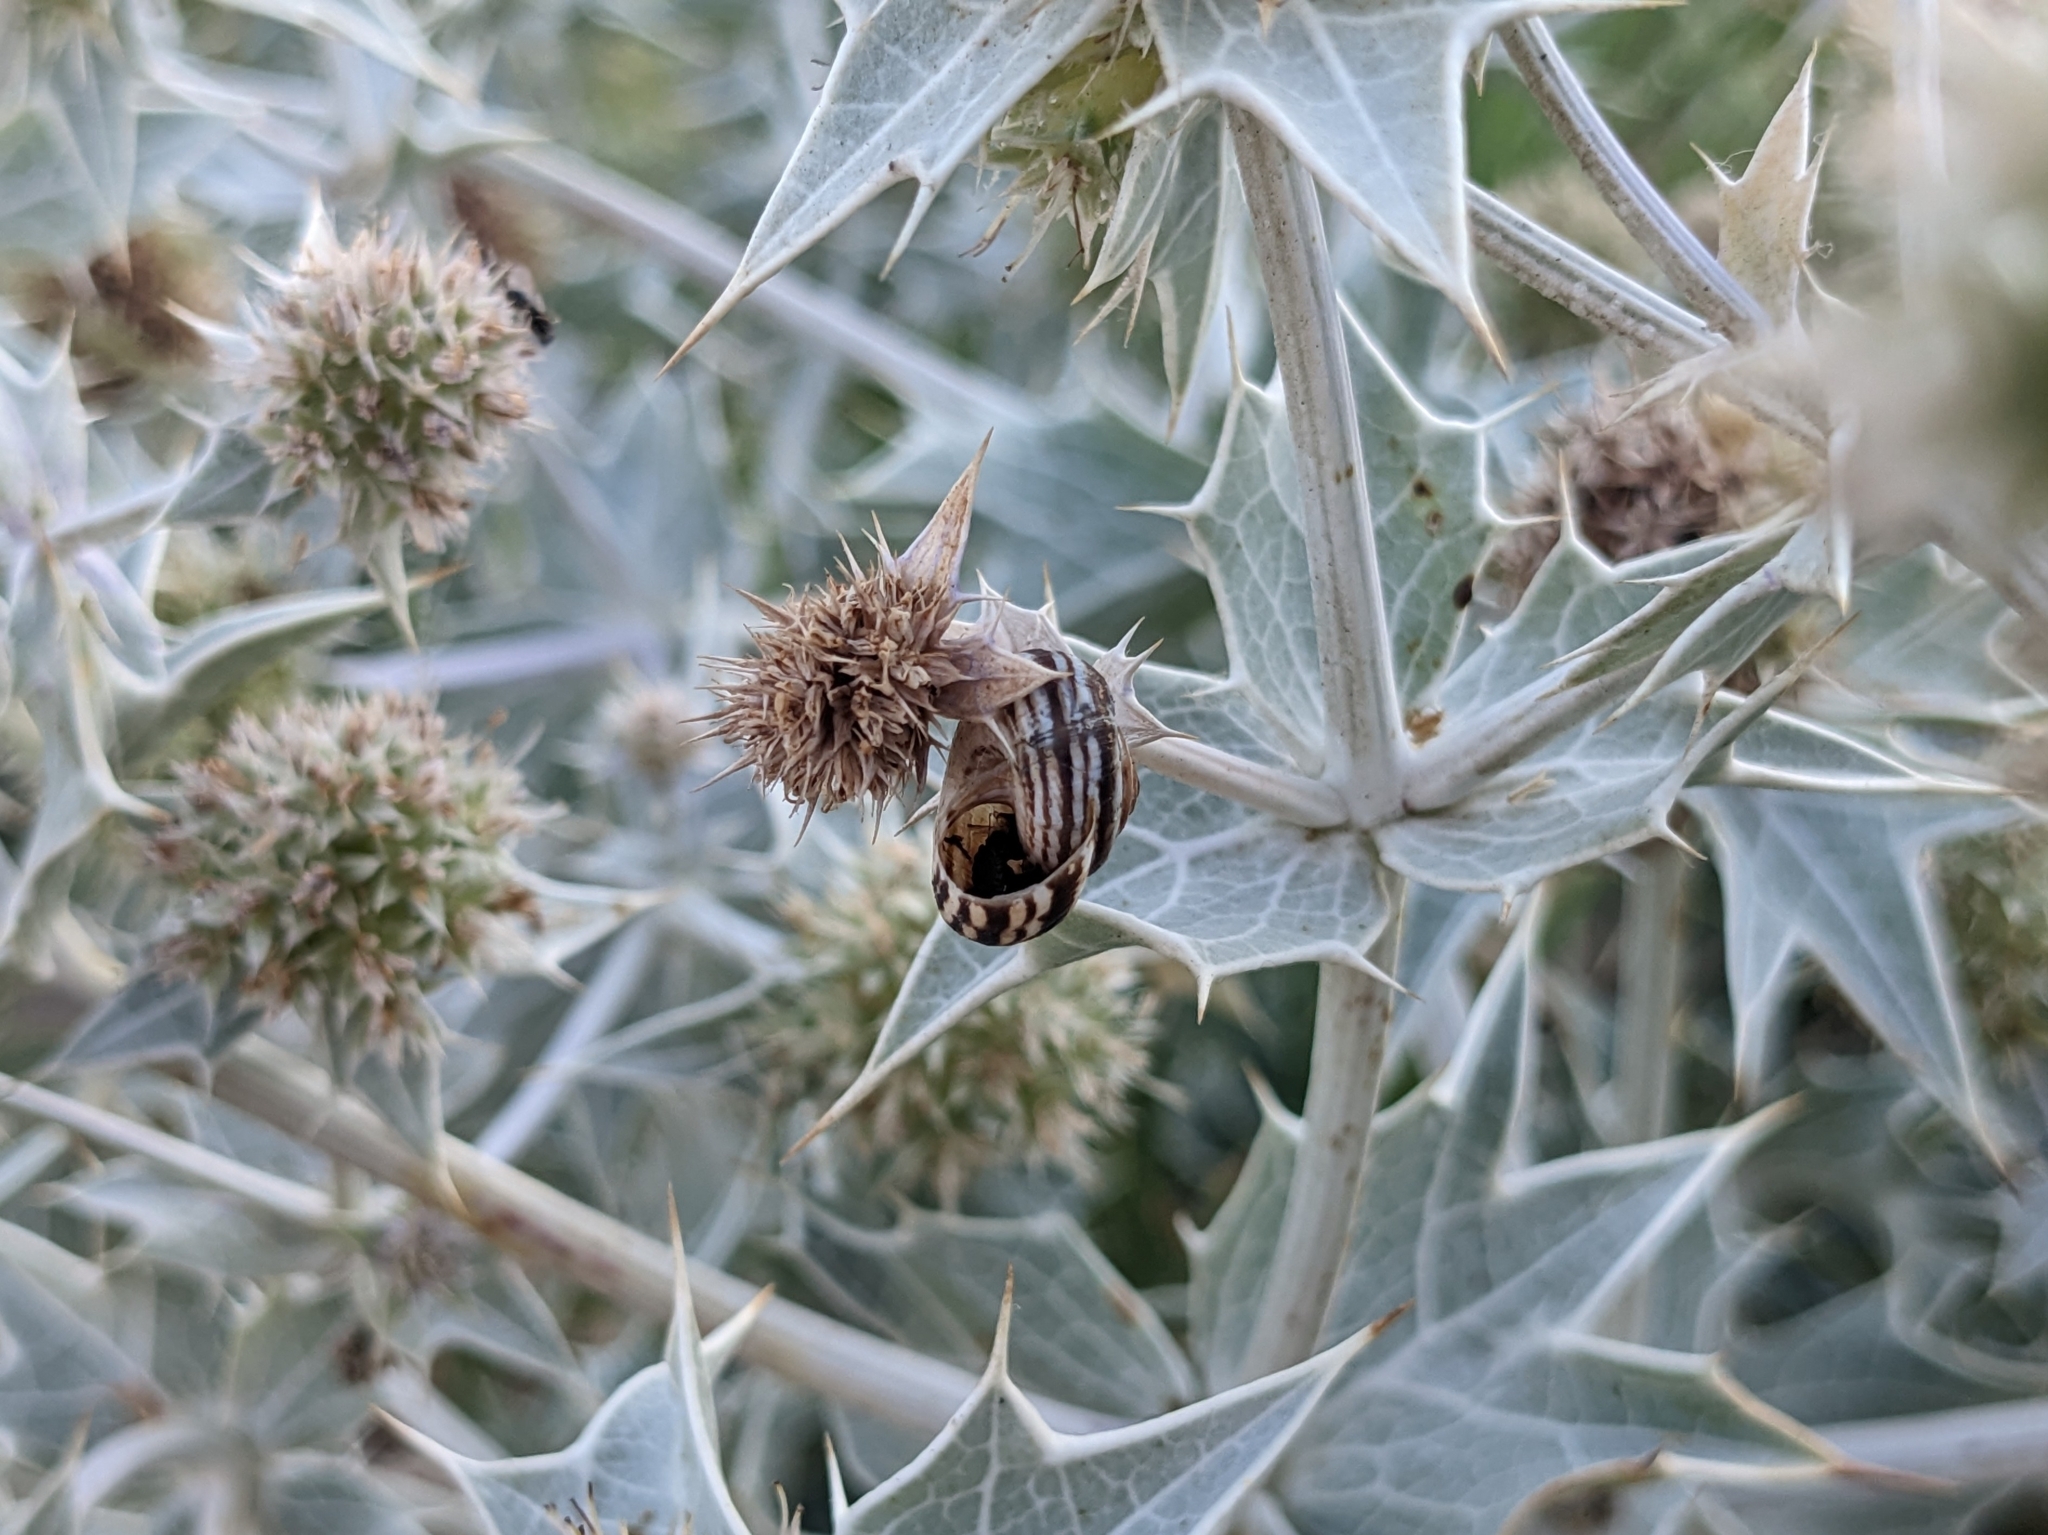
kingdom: Animalia
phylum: Mollusca
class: Gastropoda
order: Stylommatophora
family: Geomitridae
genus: Xeropicta
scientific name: Xeropicta krynickii
